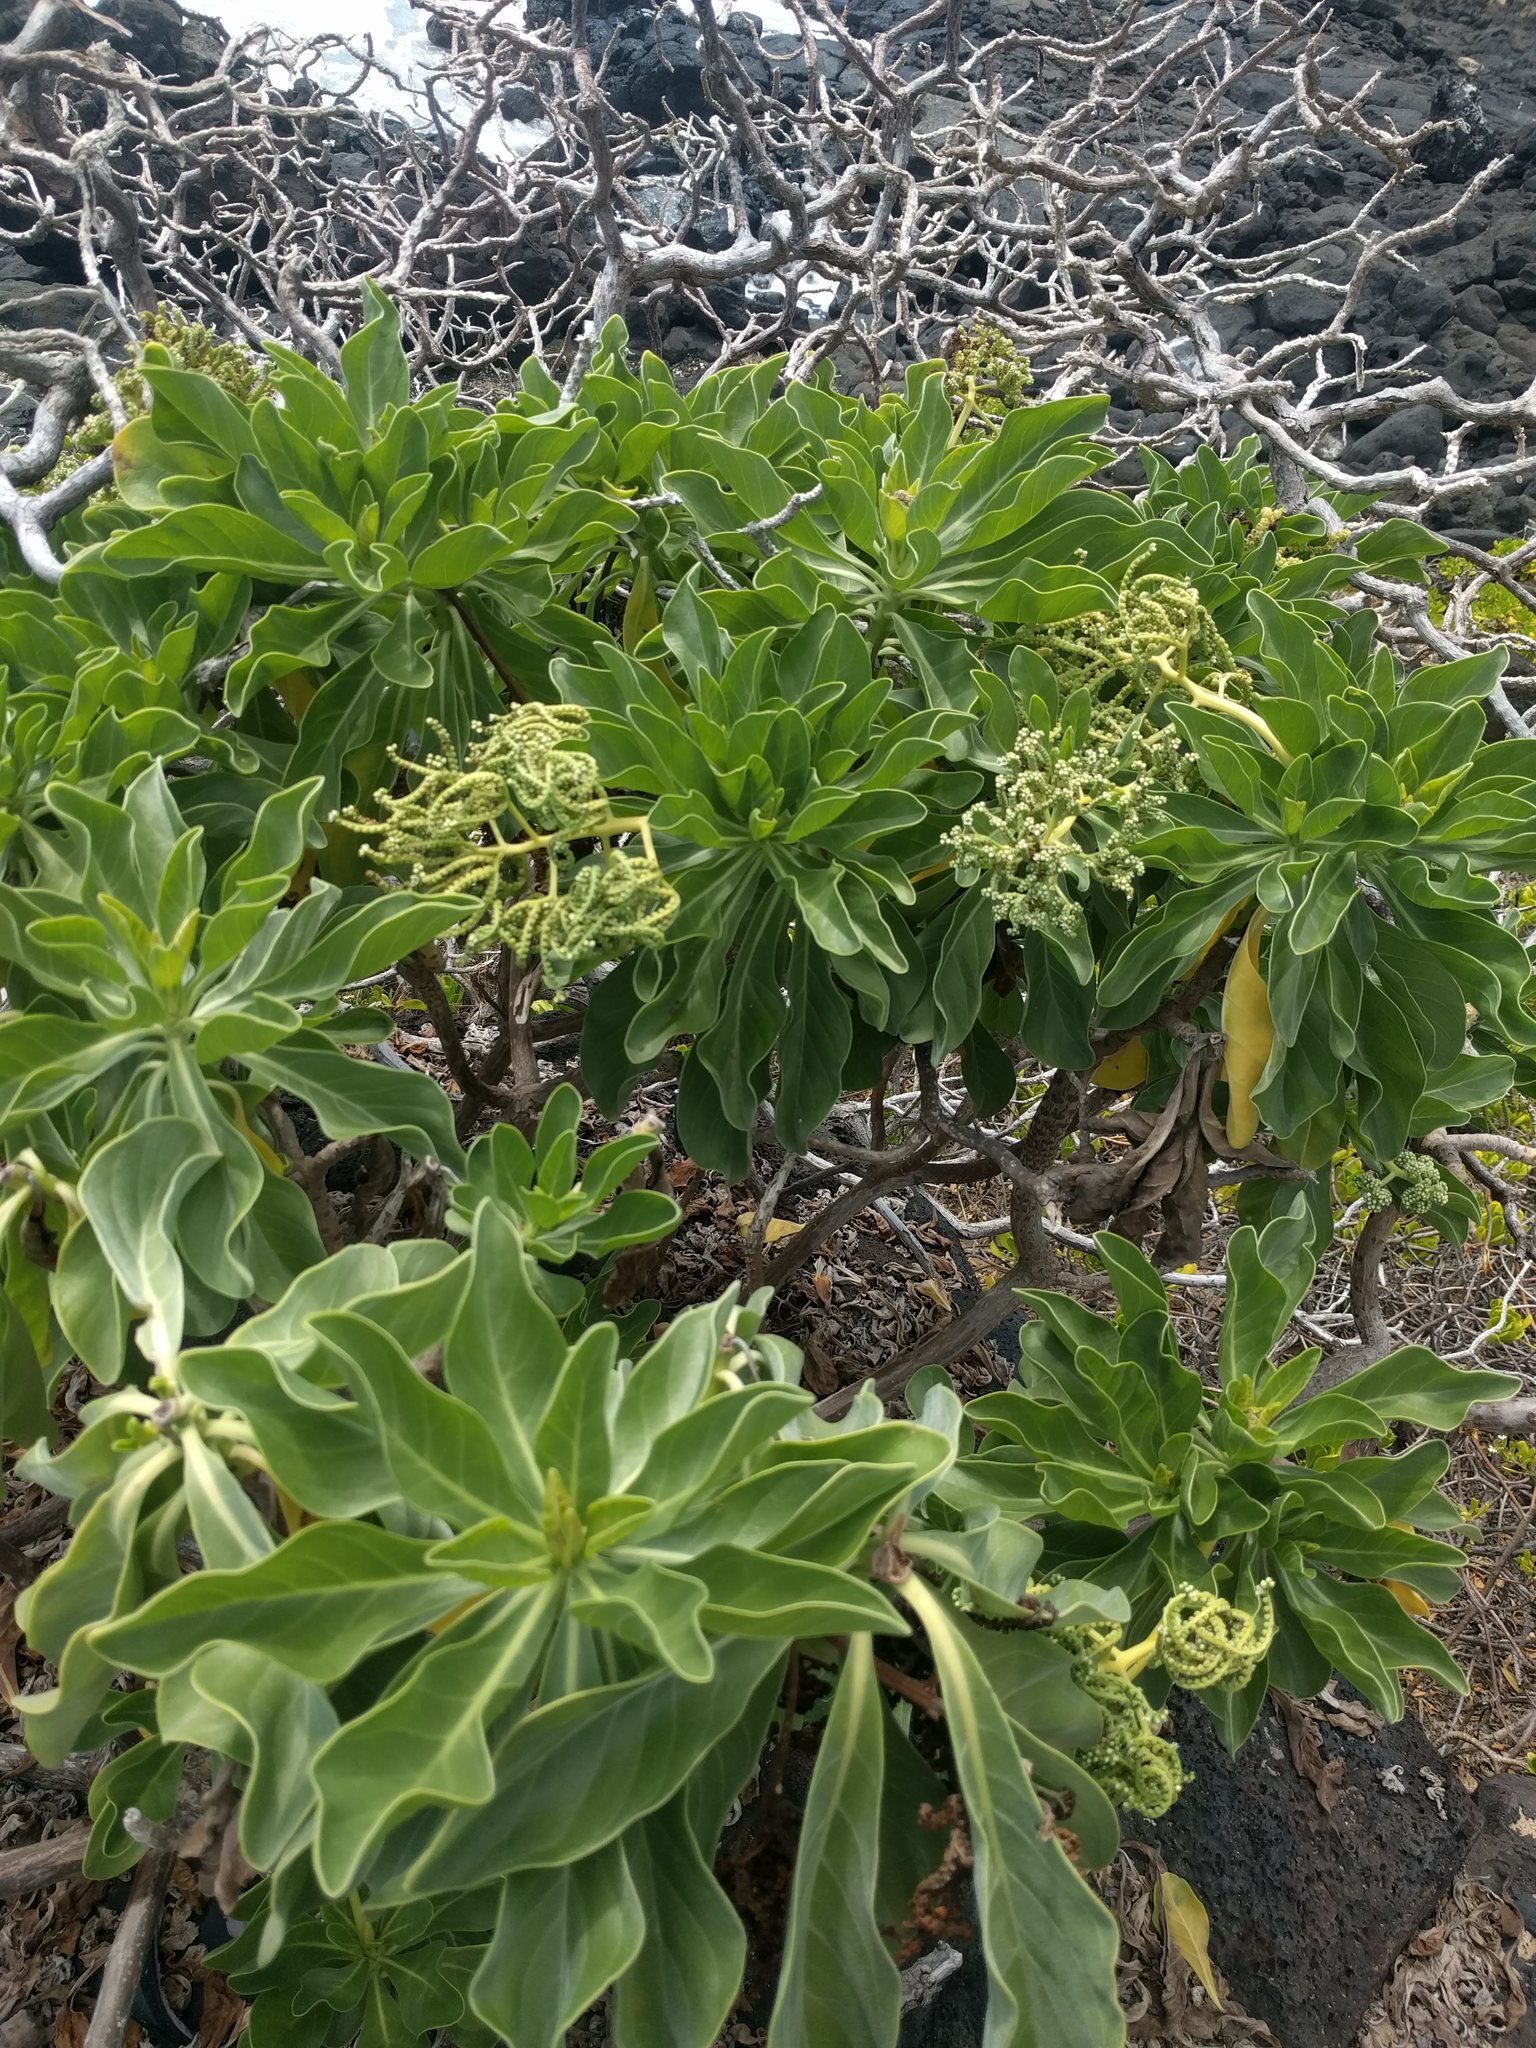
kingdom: Plantae
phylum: Tracheophyta
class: Magnoliopsida
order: Boraginales
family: Heliotropiaceae
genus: Heliotropium
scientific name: Heliotropium velutinum
